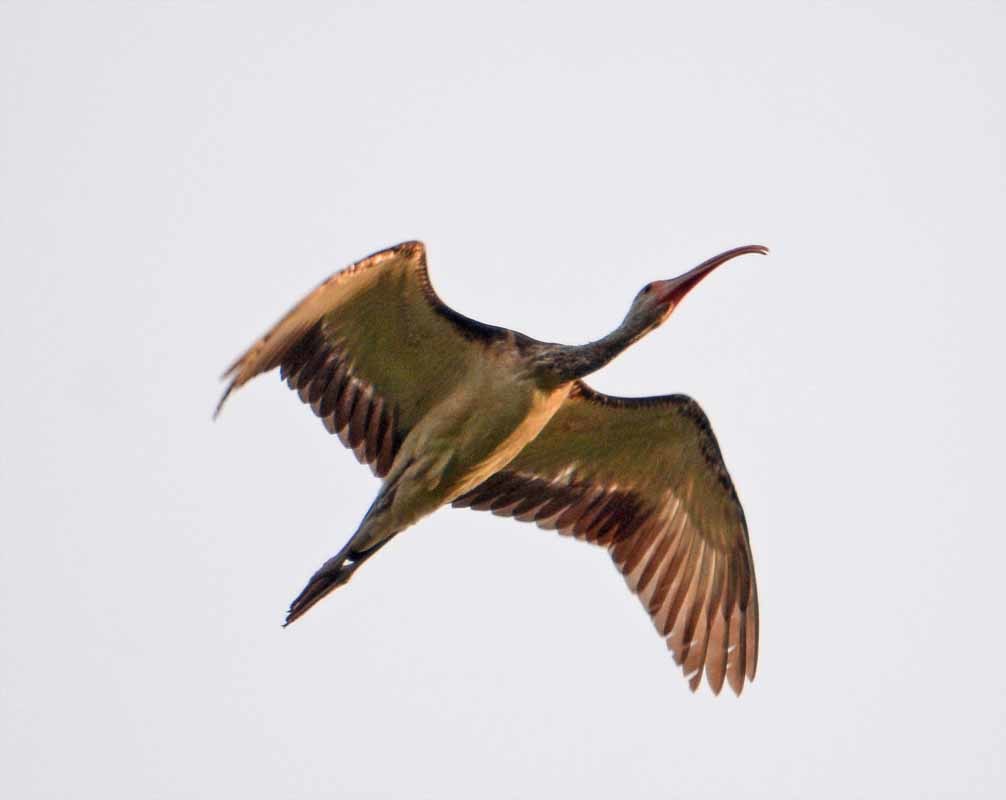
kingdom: Animalia
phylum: Chordata
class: Aves
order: Pelecaniformes
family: Threskiornithidae
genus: Eudocimus
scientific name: Eudocimus albus
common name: White ibis
